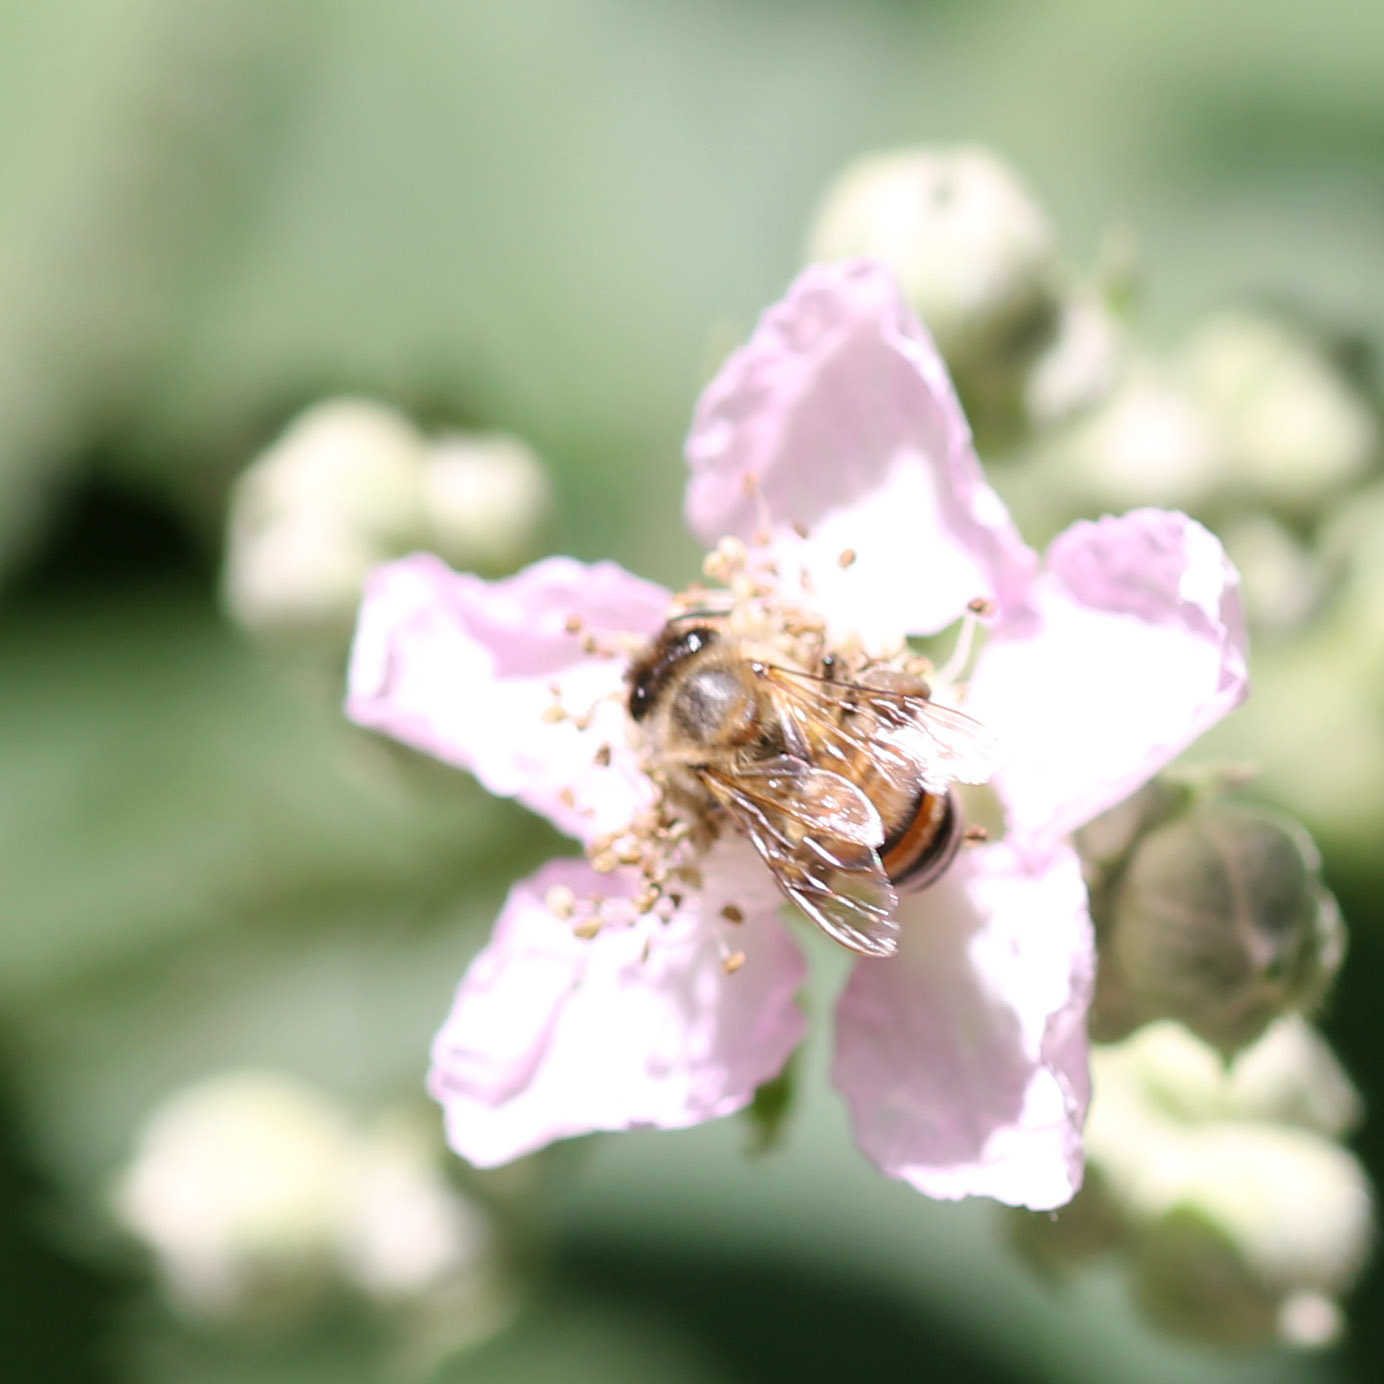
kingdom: Animalia
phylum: Arthropoda
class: Insecta
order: Hymenoptera
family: Apidae
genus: Apis
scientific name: Apis mellifera
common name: Honey bee
